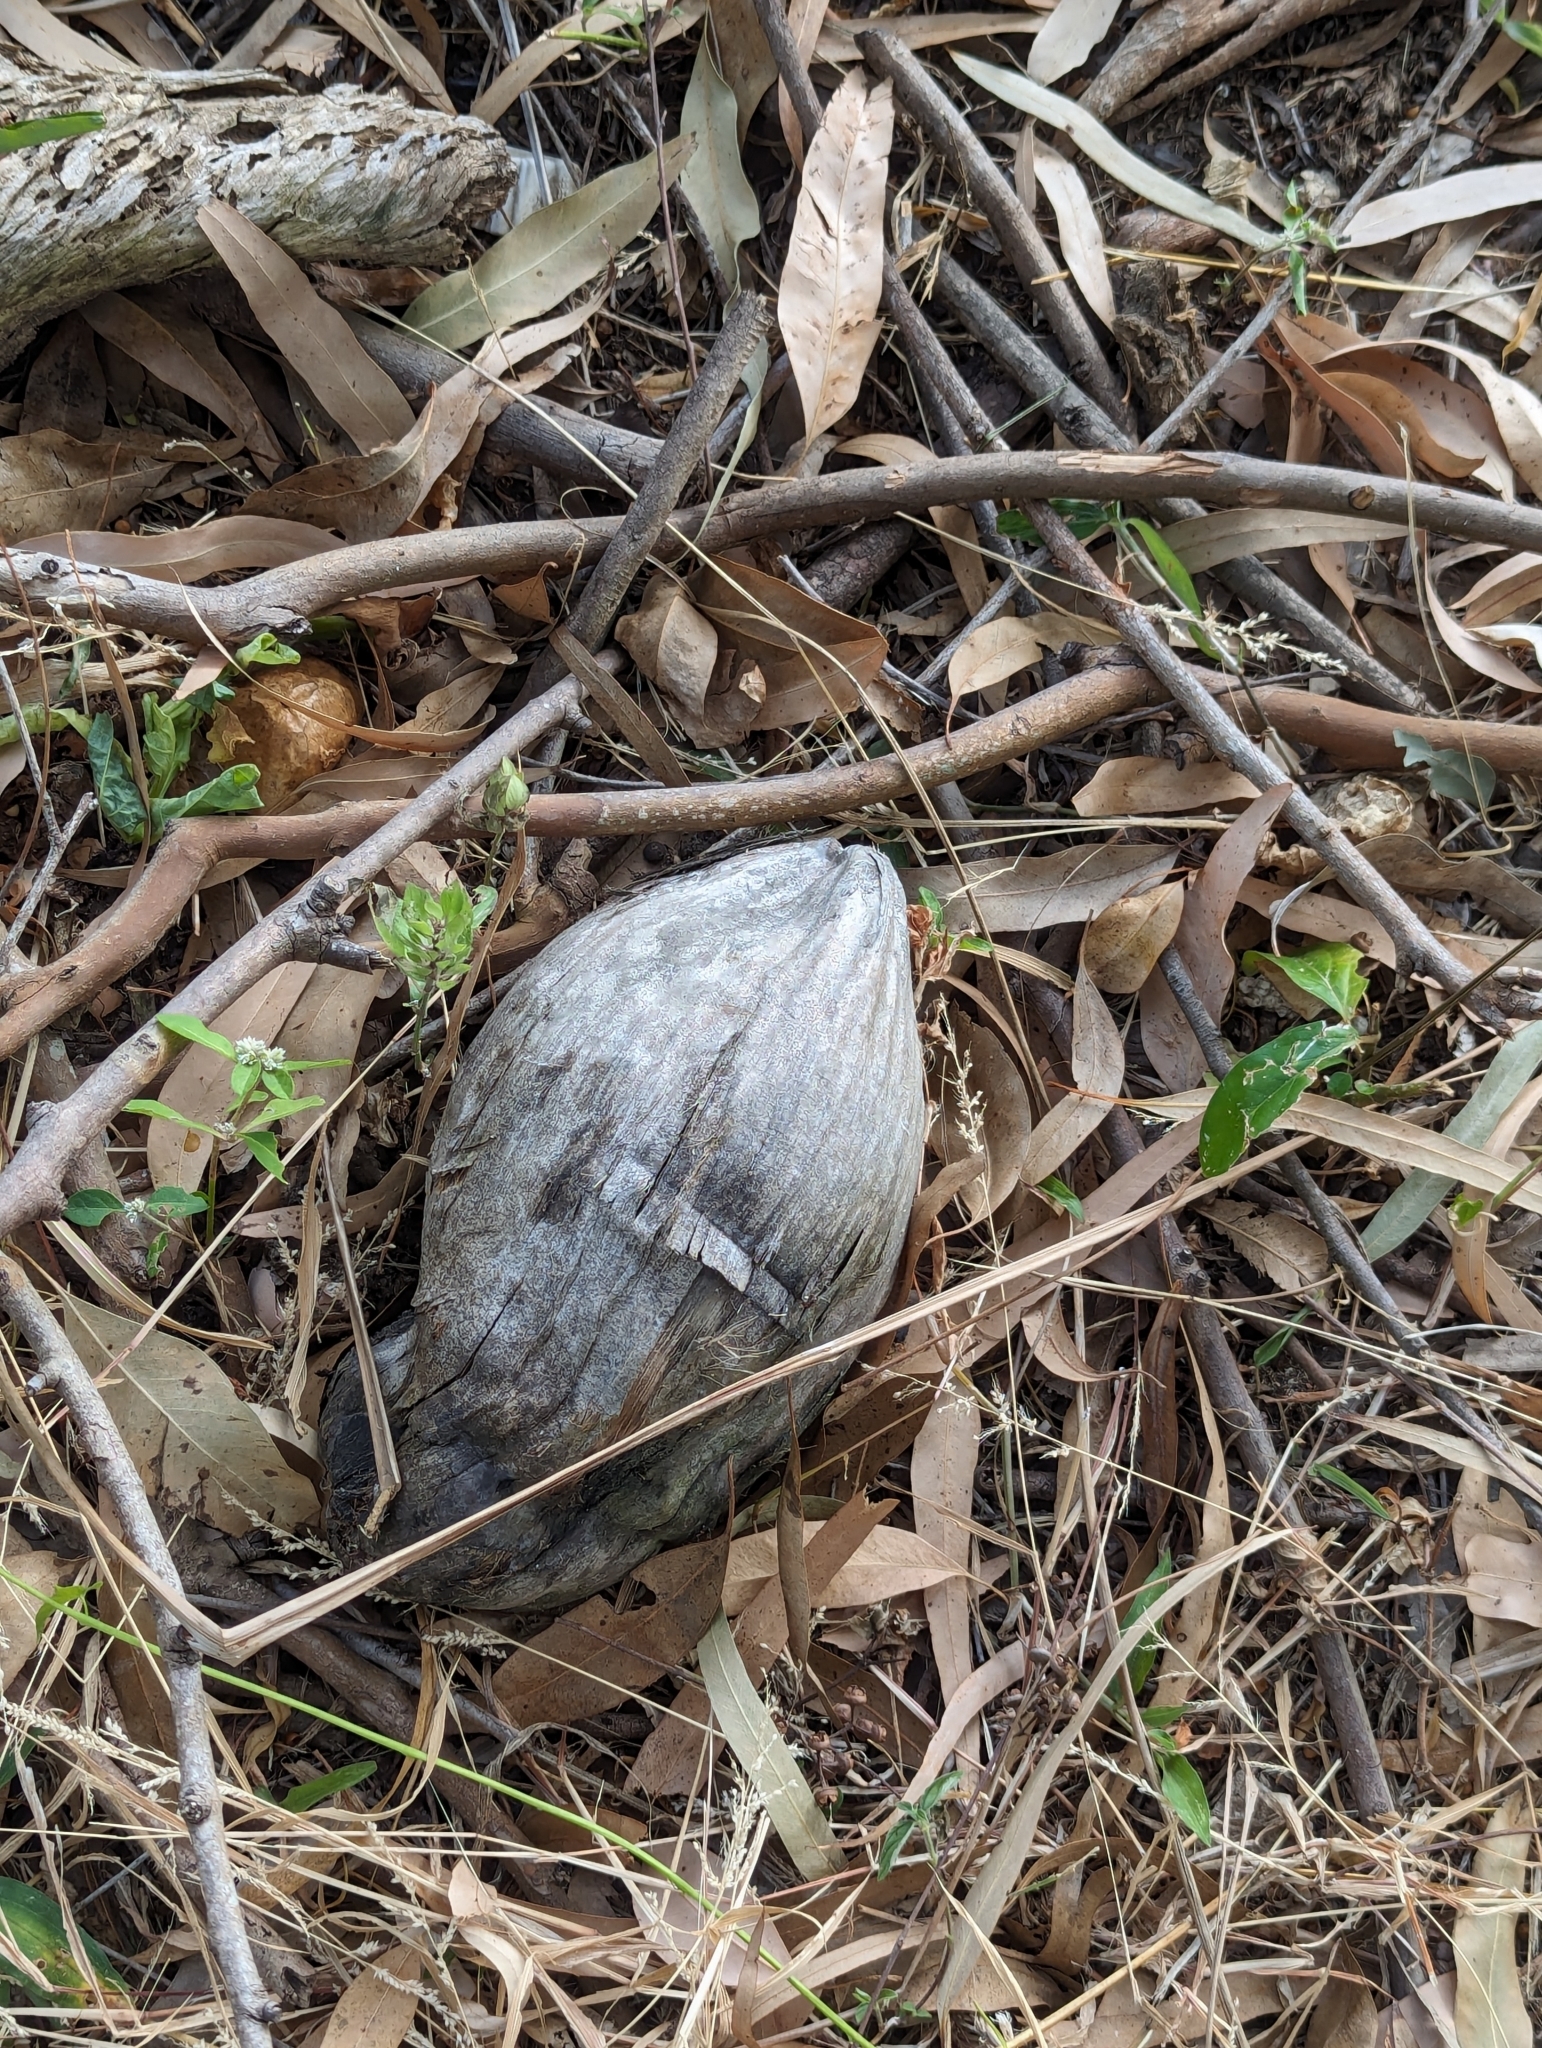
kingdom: Plantae
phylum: Tracheophyta
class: Liliopsida
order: Arecales
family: Arecaceae
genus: Cocos
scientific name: Cocos nucifera
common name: Coconut palm
